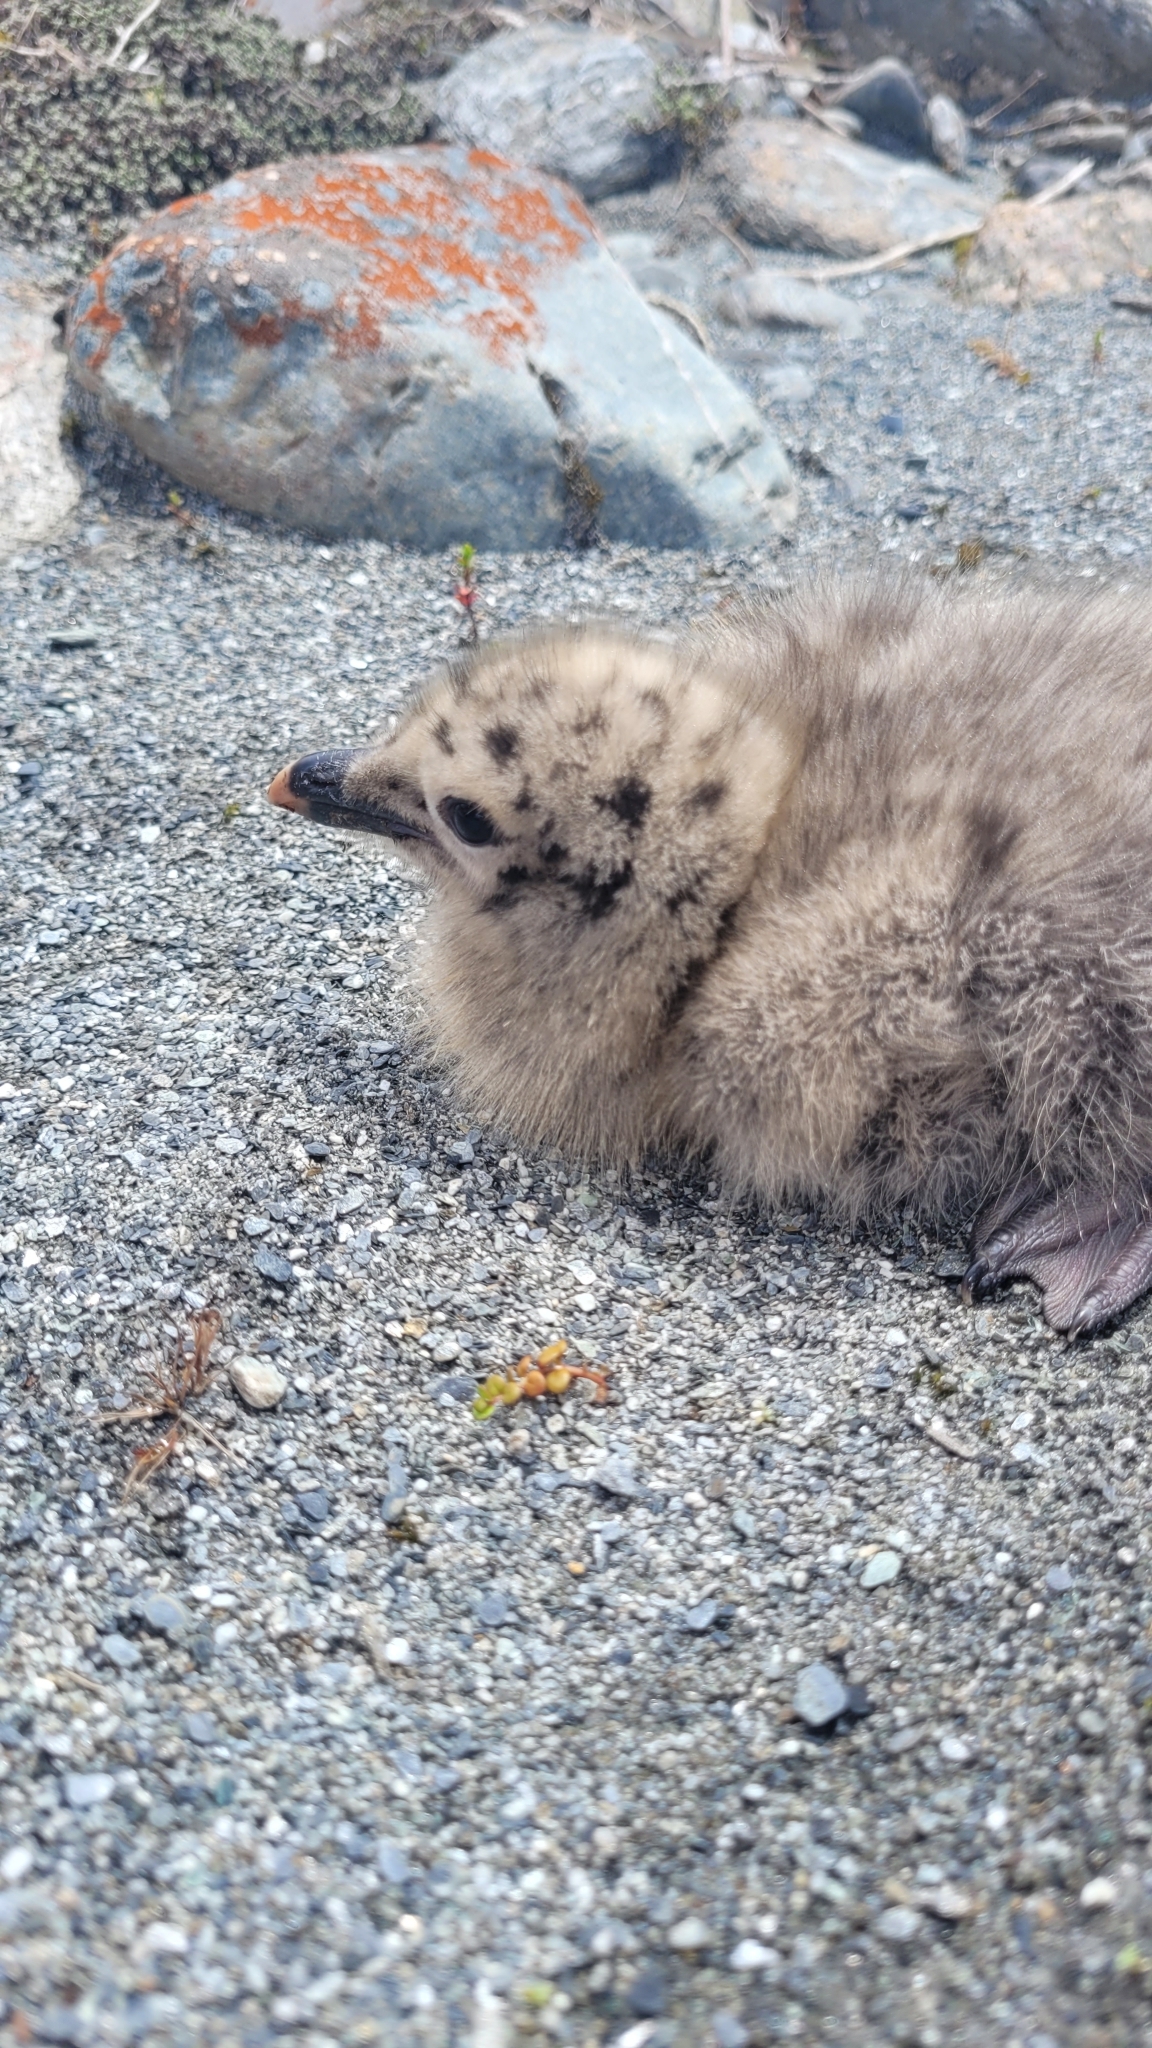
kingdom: Animalia
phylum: Chordata
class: Aves
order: Charadriiformes
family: Laridae
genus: Larus
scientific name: Larus dominicanus
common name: Kelp gull
